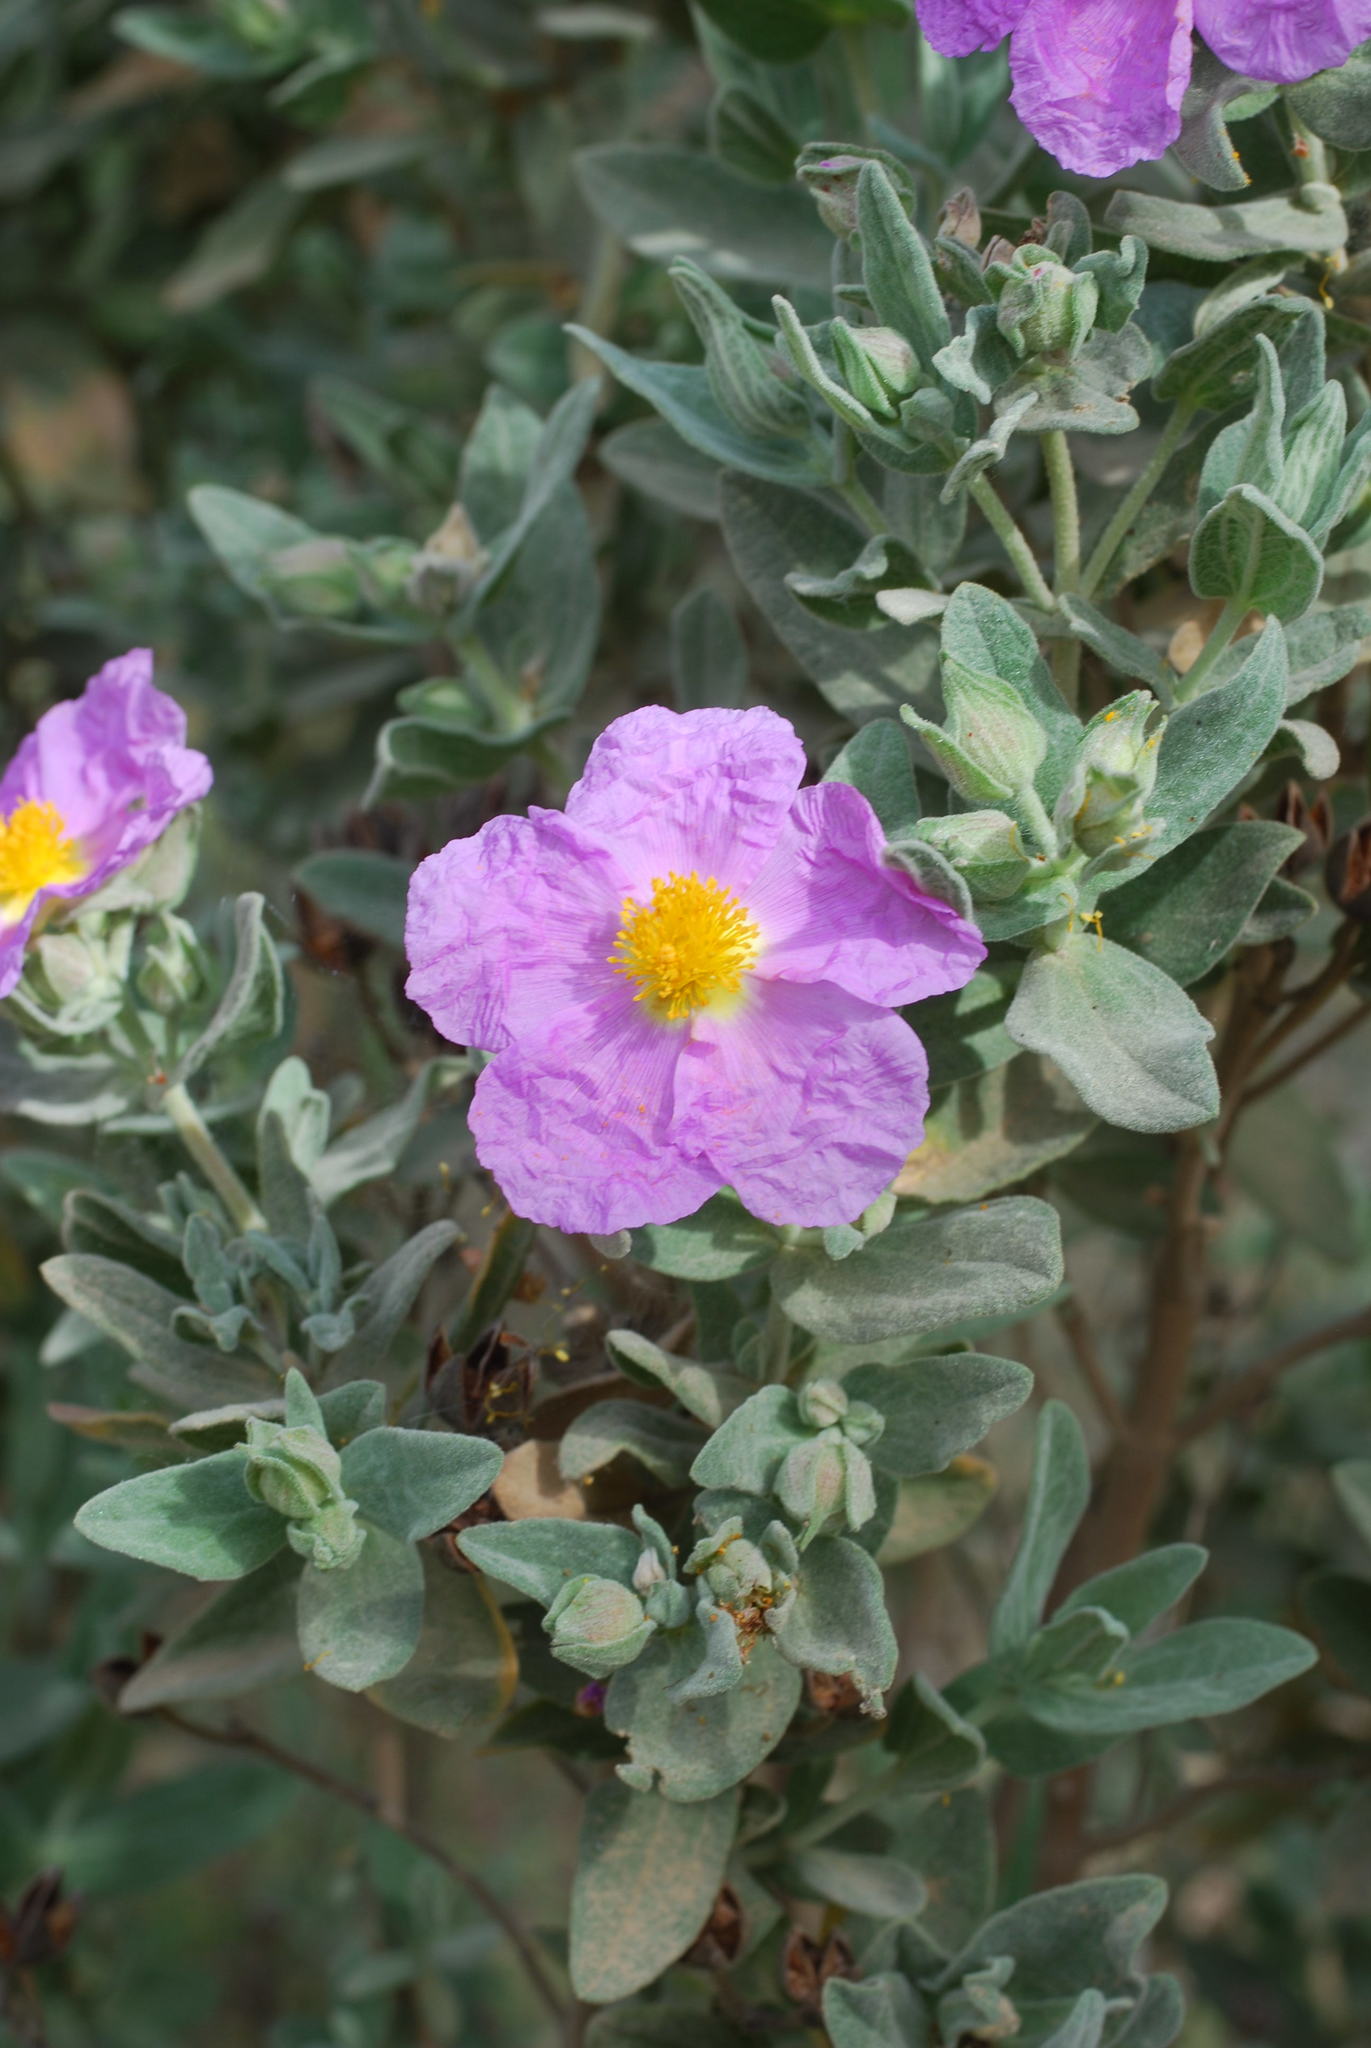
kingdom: Plantae
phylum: Tracheophyta
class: Magnoliopsida
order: Malvales
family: Cistaceae
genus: Cistus
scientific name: Cistus albidus
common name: White-leaf rock-rose
